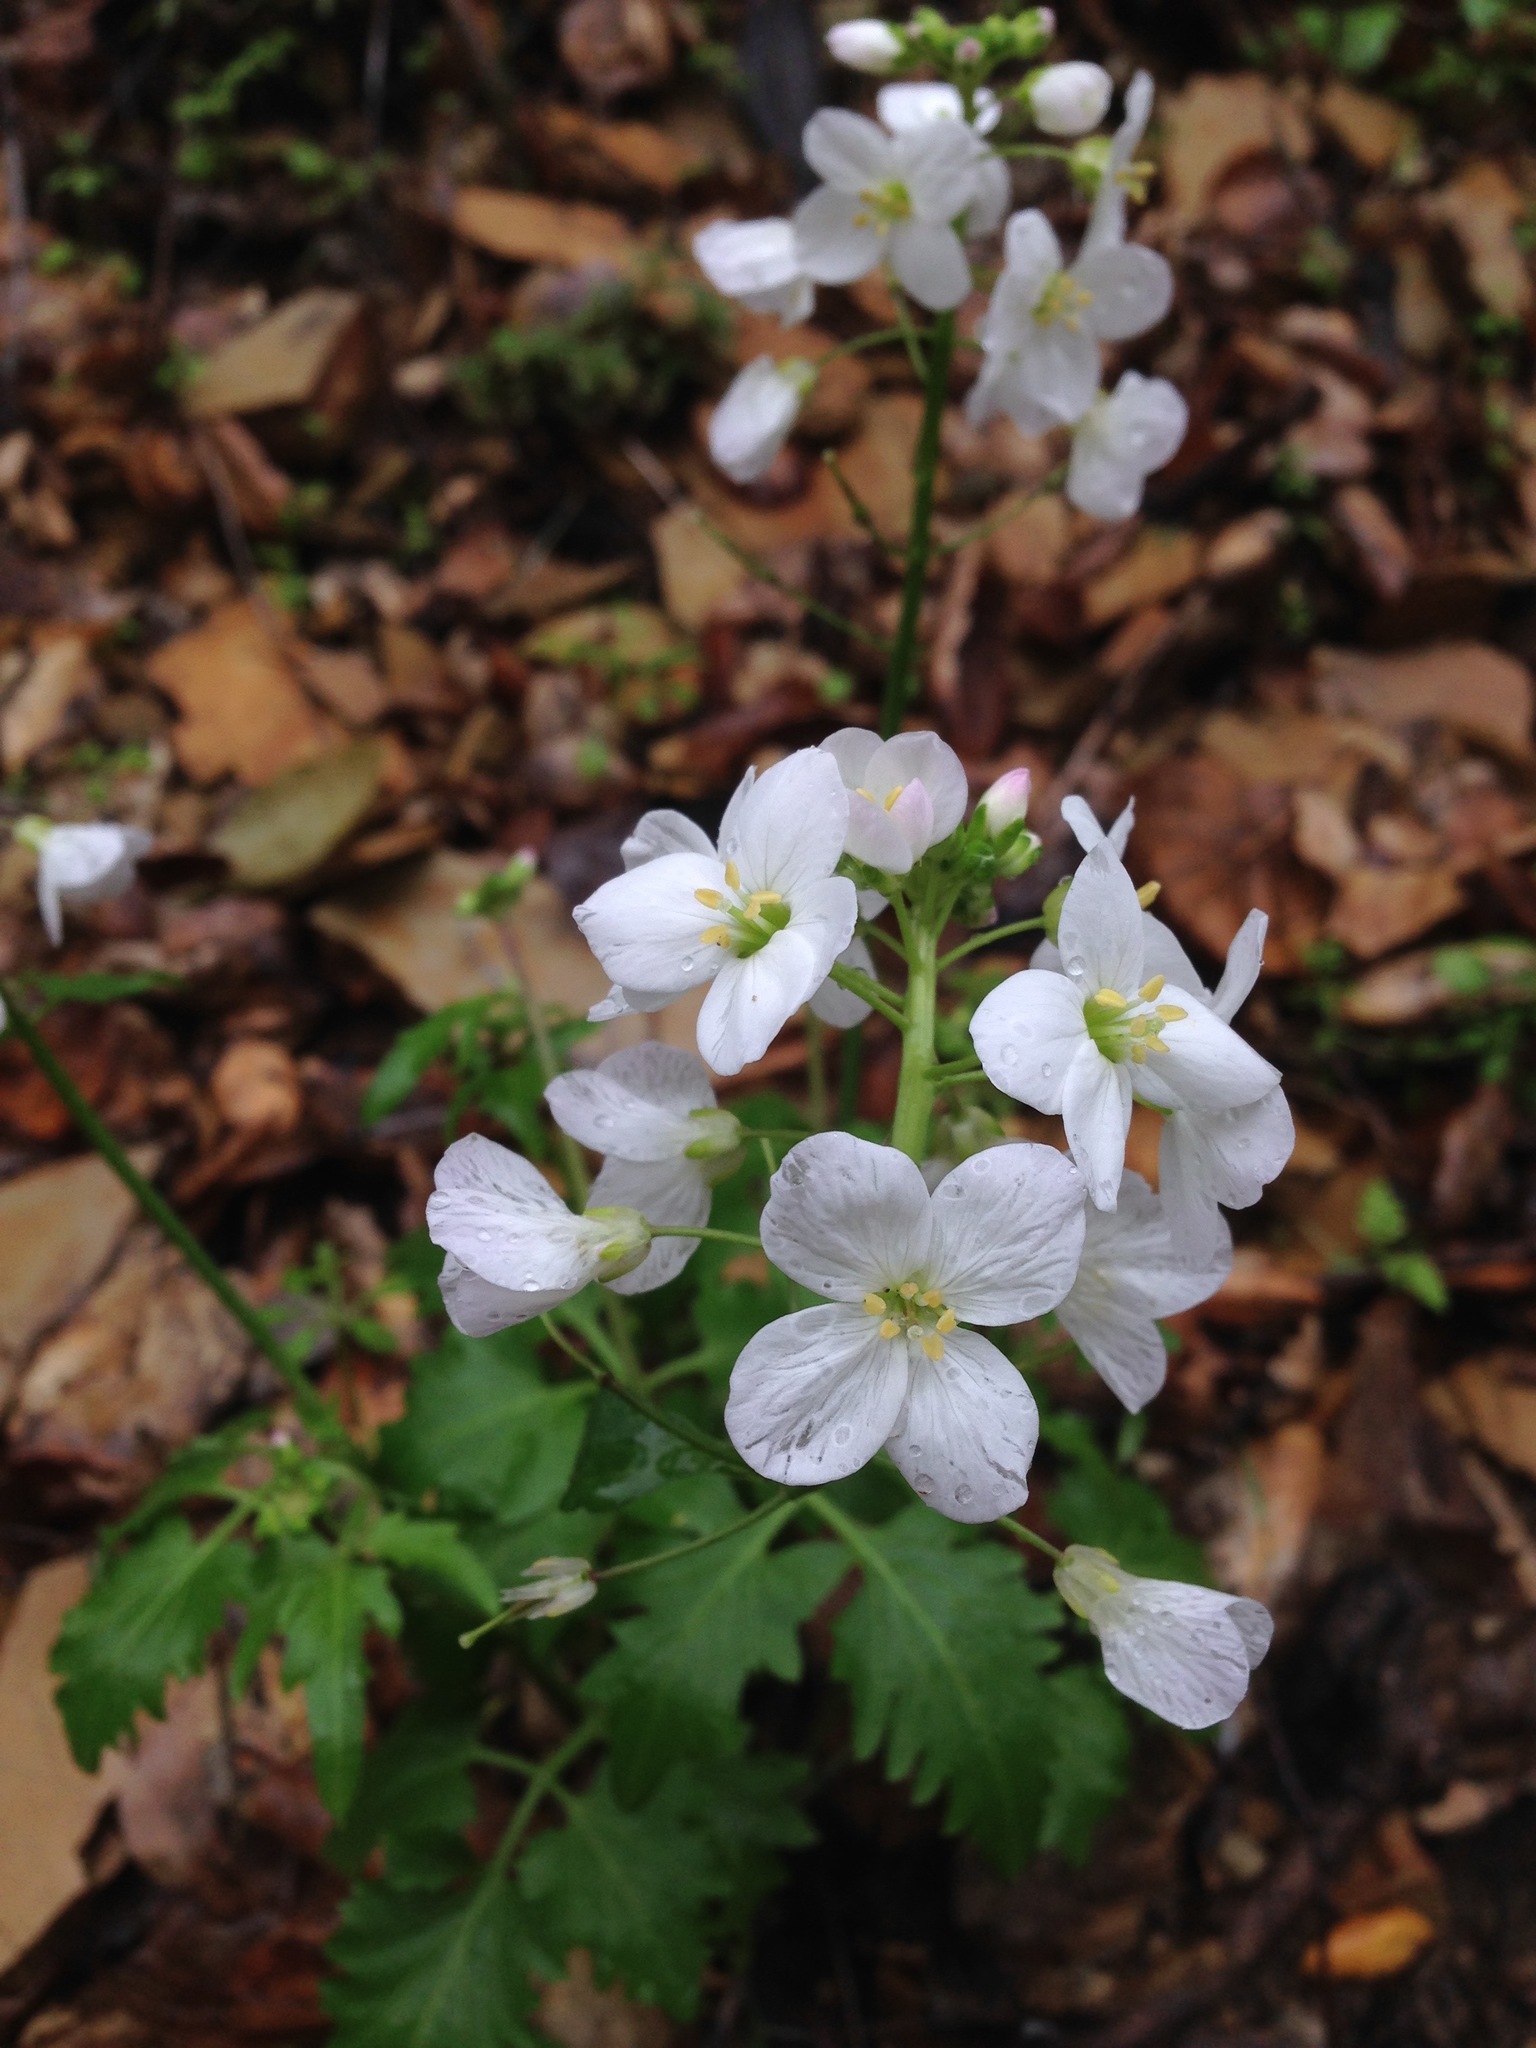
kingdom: Plantae
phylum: Tracheophyta
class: Magnoliopsida
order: Brassicales
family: Brassicaceae
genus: Cardamine
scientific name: Cardamine californica
